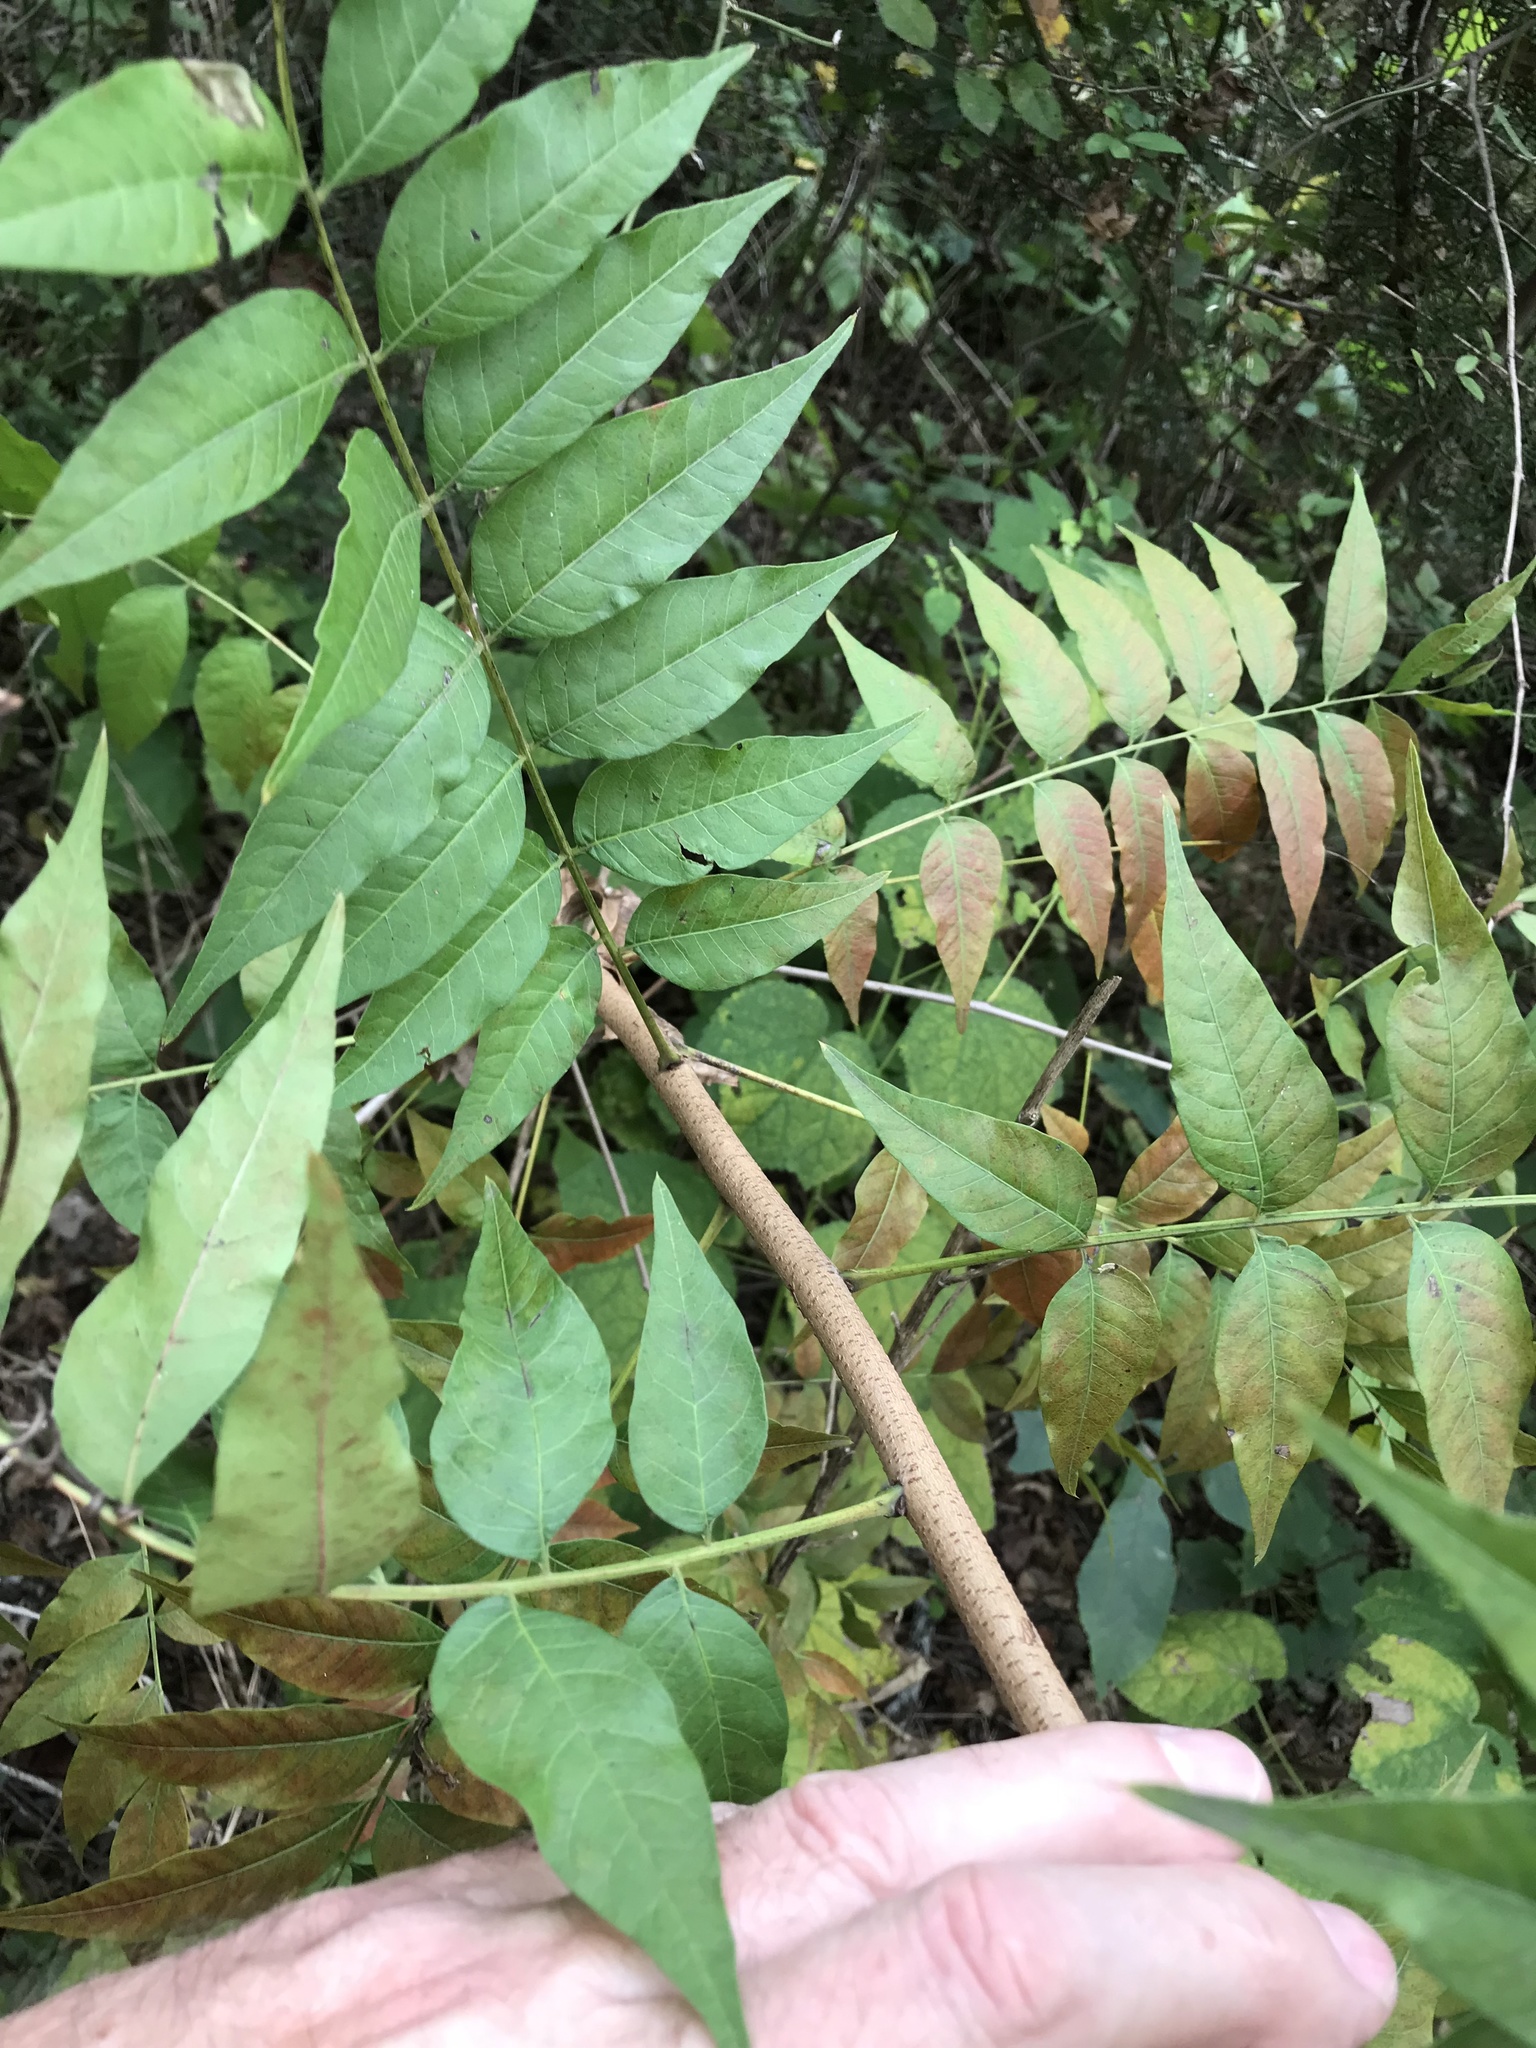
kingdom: Plantae
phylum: Tracheophyta
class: Magnoliopsida
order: Sapindales
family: Anacardiaceae
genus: Pistacia
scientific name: Pistacia chinensis
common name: Chinese pistache
